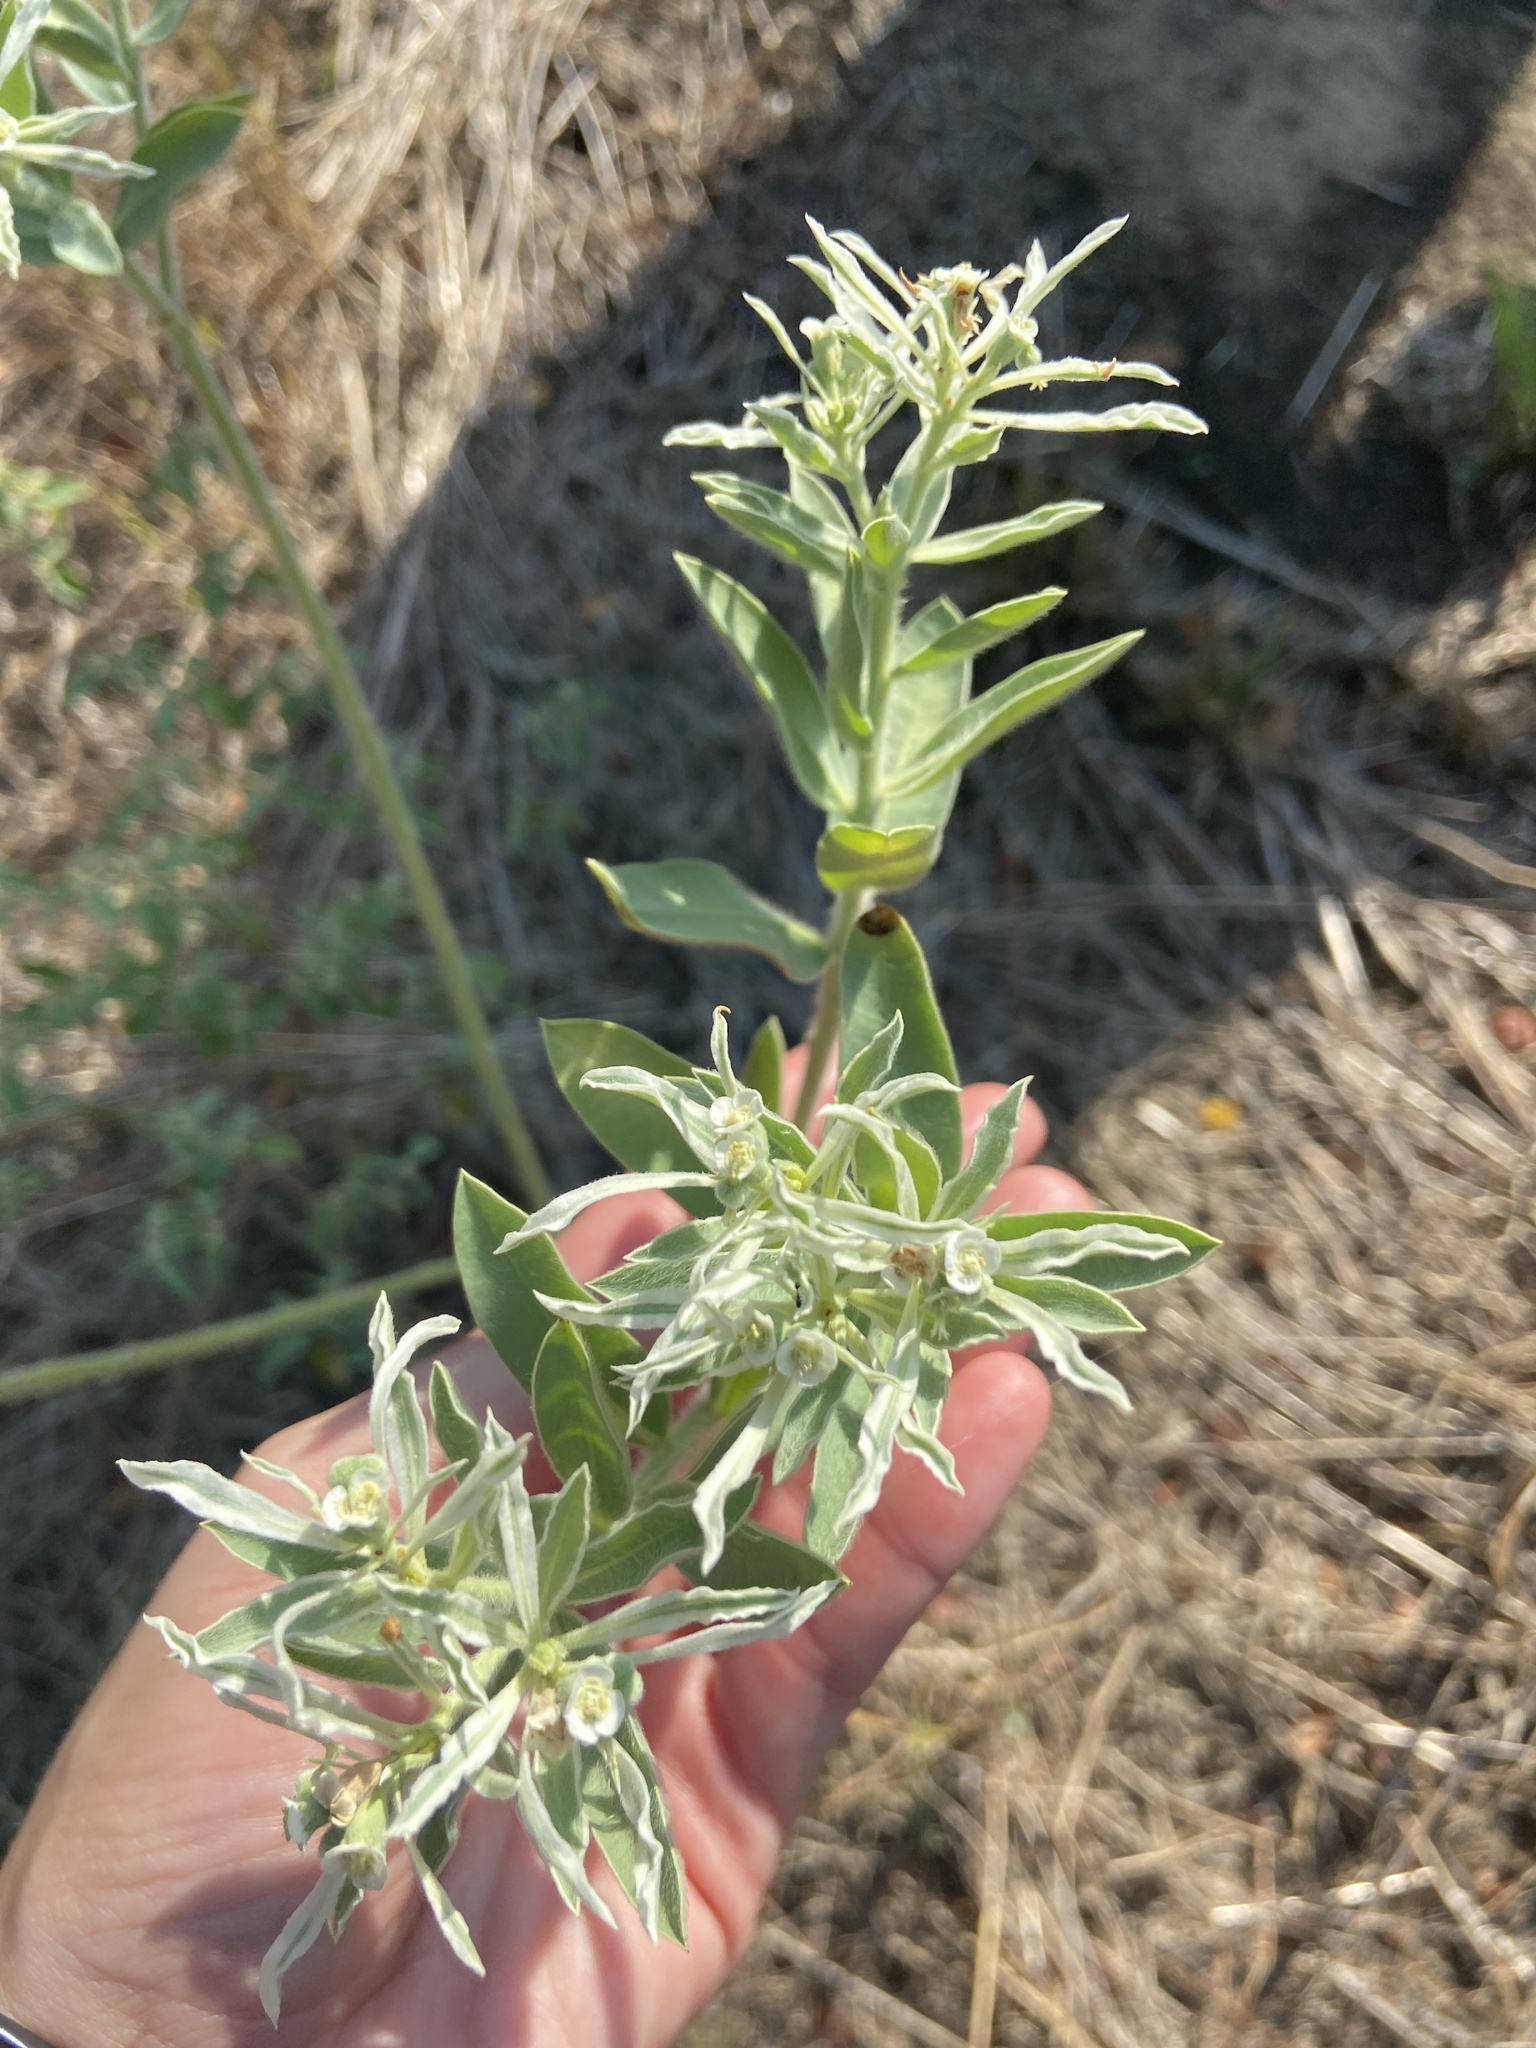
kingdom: Plantae
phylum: Tracheophyta
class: Magnoliopsida
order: Malpighiales
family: Euphorbiaceae
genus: Euphorbia
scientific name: Euphorbia bicolor
